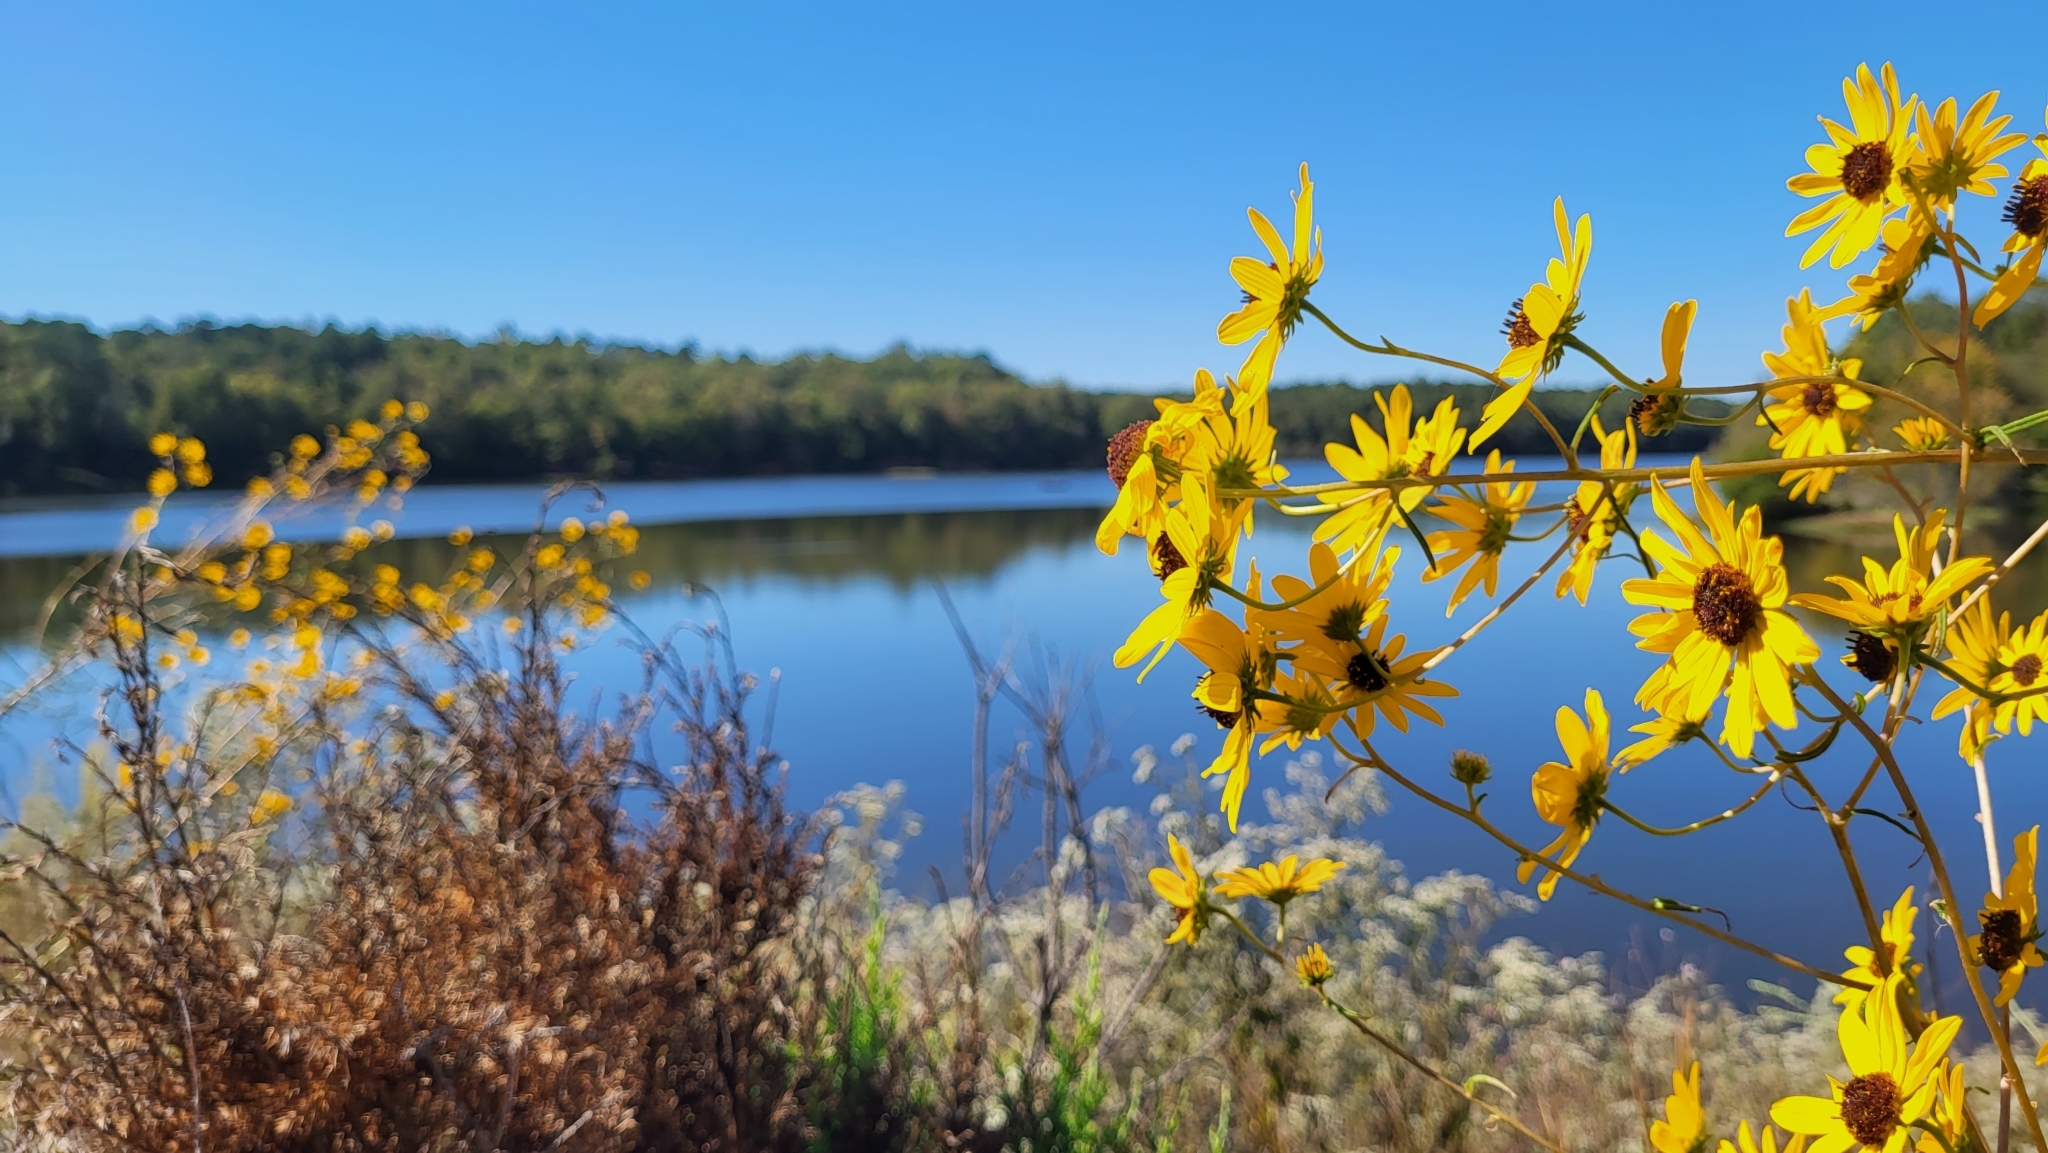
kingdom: Plantae
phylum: Tracheophyta
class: Magnoliopsida
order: Asterales
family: Asteraceae
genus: Helianthus
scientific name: Helianthus angustifolius
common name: Swamp sunflower
